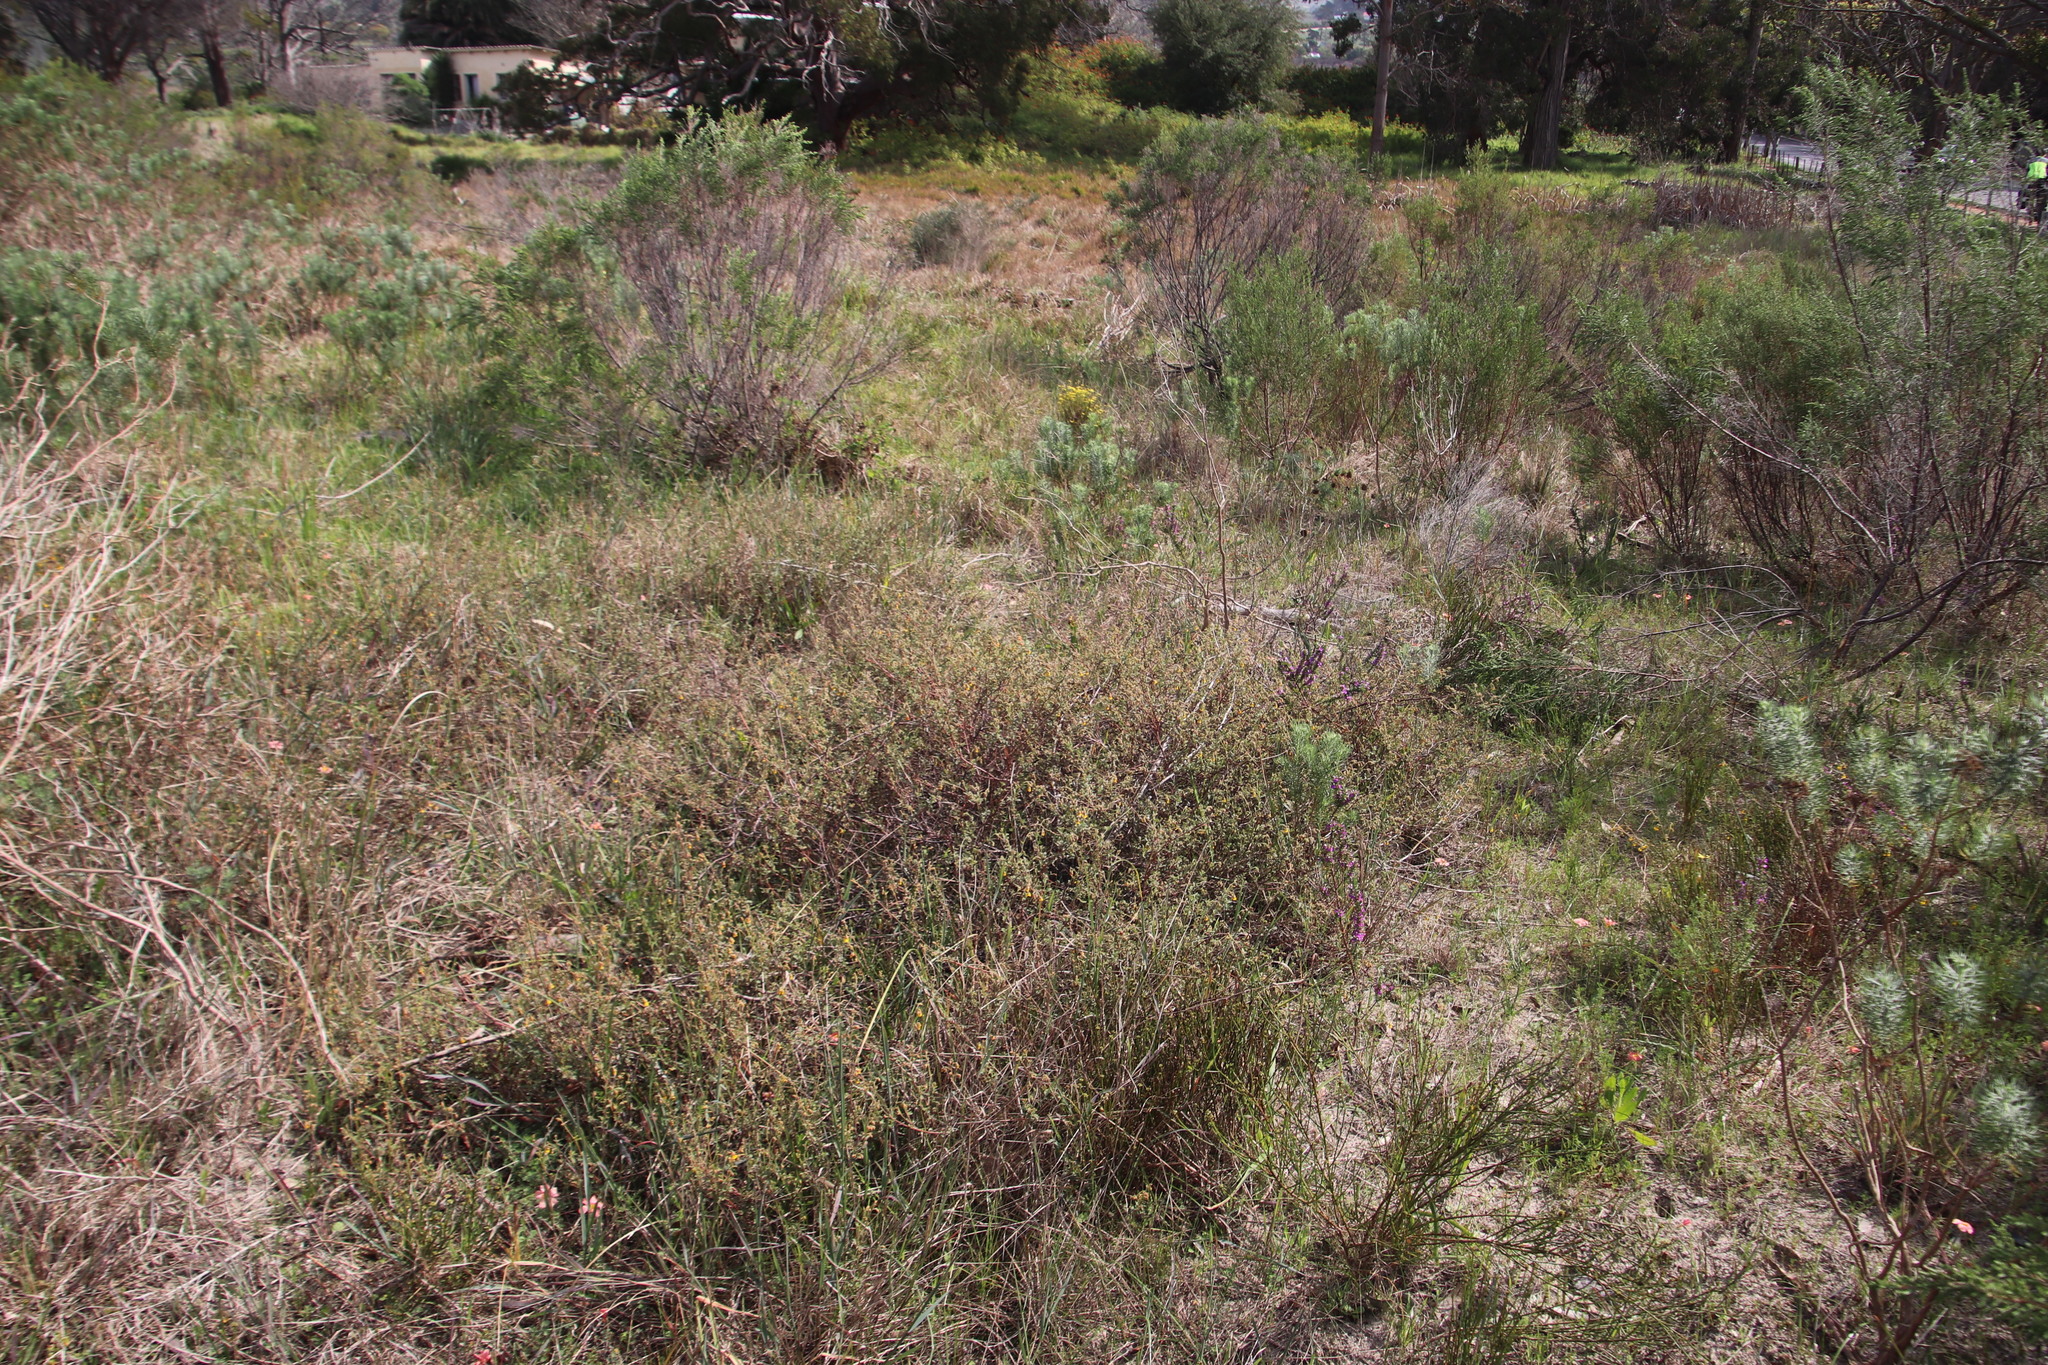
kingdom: Plantae
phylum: Tracheophyta
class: Magnoliopsida
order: Malvales
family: Malvaceae
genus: Hermannia
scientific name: Hermannia multiflora
